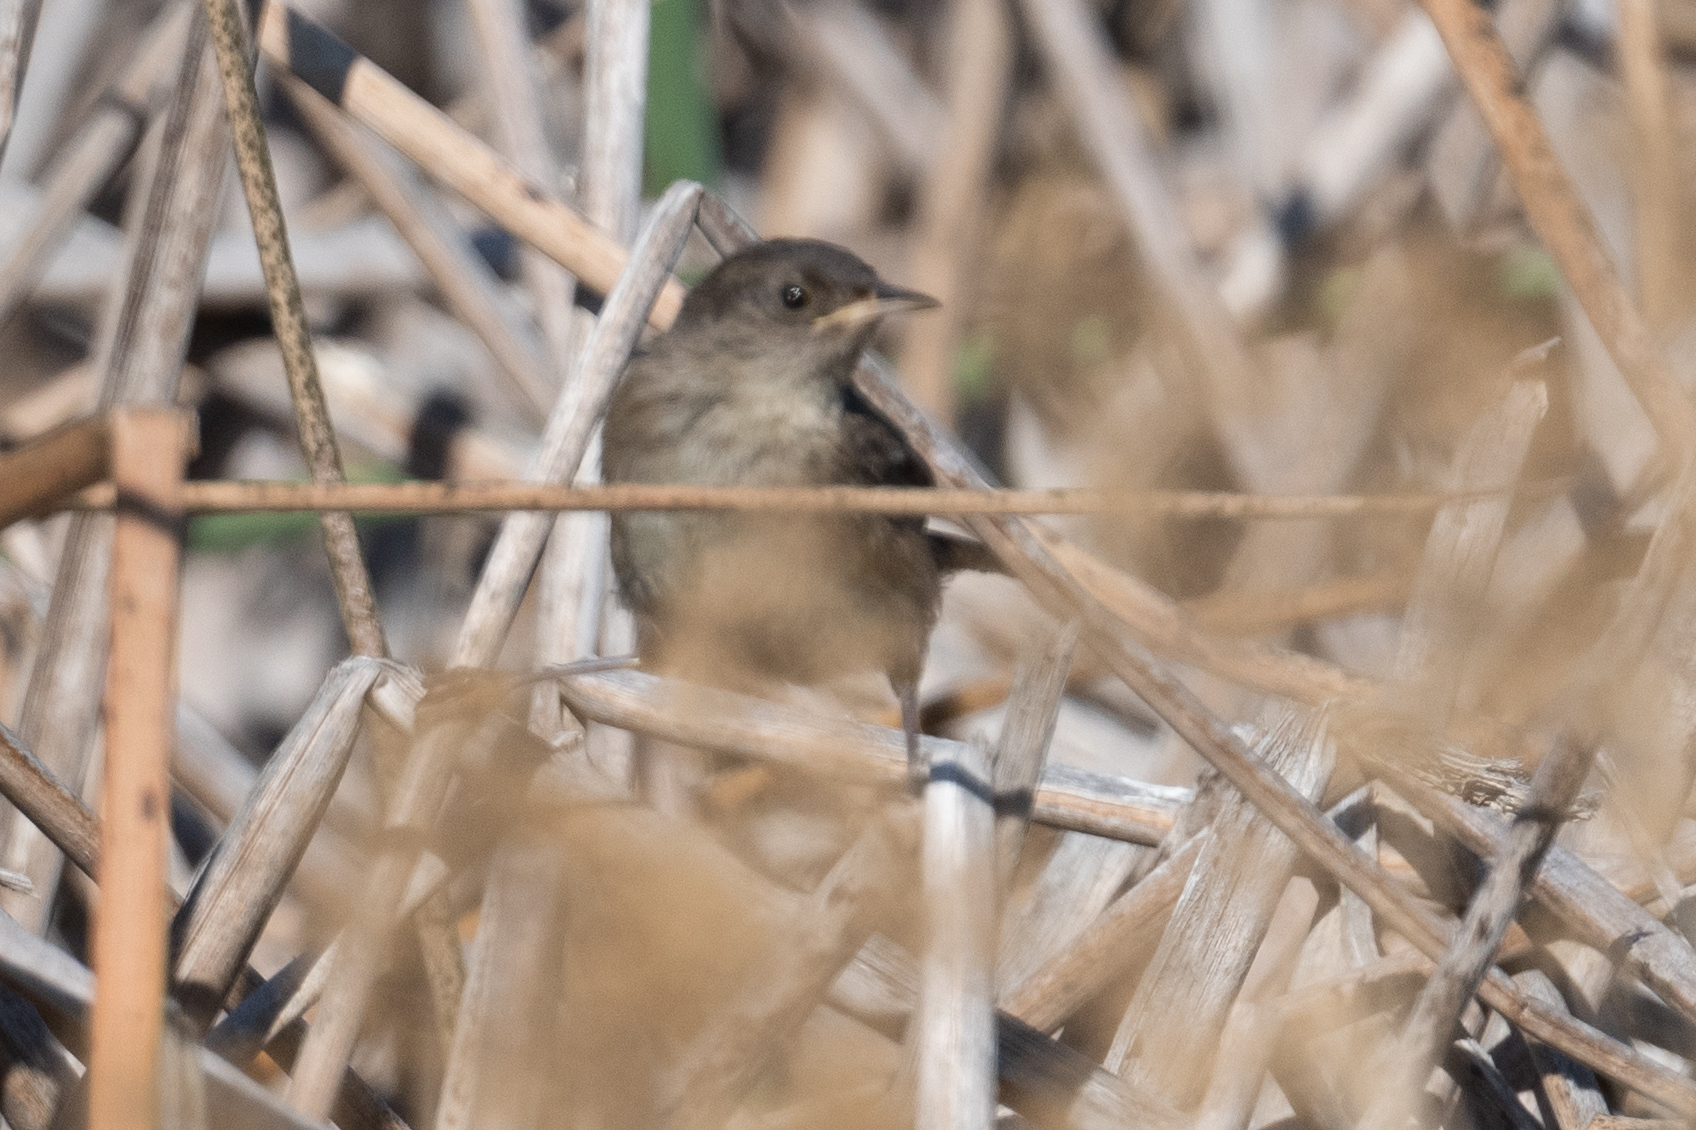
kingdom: Animalia
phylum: Chordata
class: Aves
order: Passeriformes
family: Troglodytidae
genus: Cistothorus
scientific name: Cistothorus palustris
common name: Marsh wren
